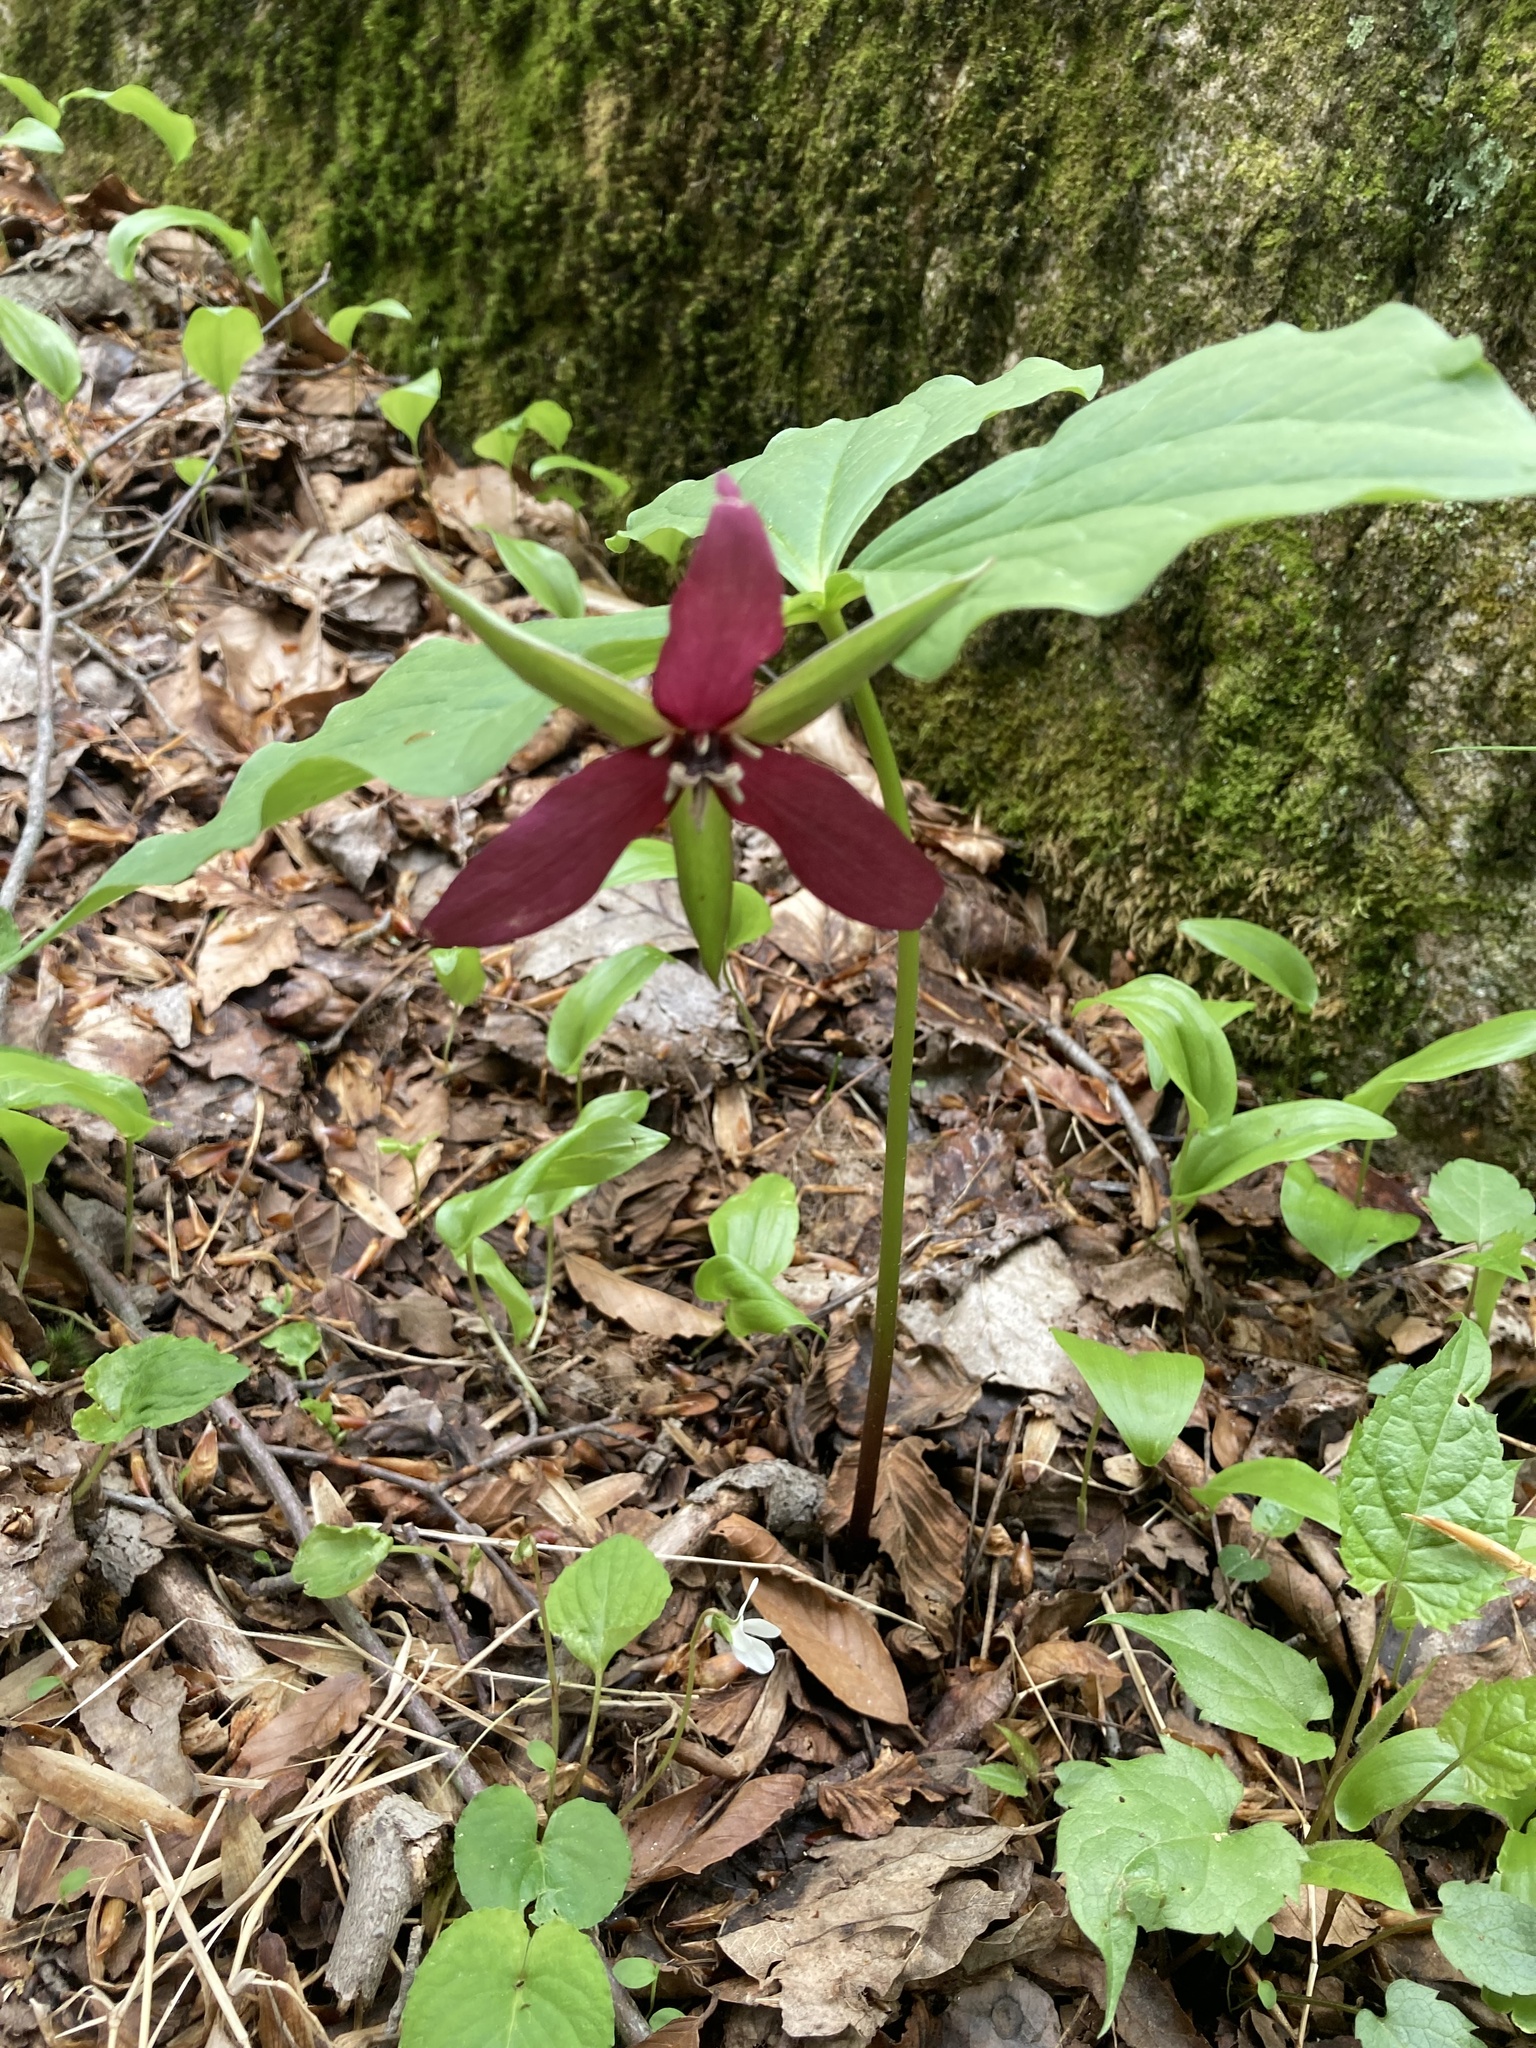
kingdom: Plantae
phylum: Tracheophyta
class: Liliopsida
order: Liliales
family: Melanthiaceae
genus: Trillium
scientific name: Trillium erectum
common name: Purple trillium
